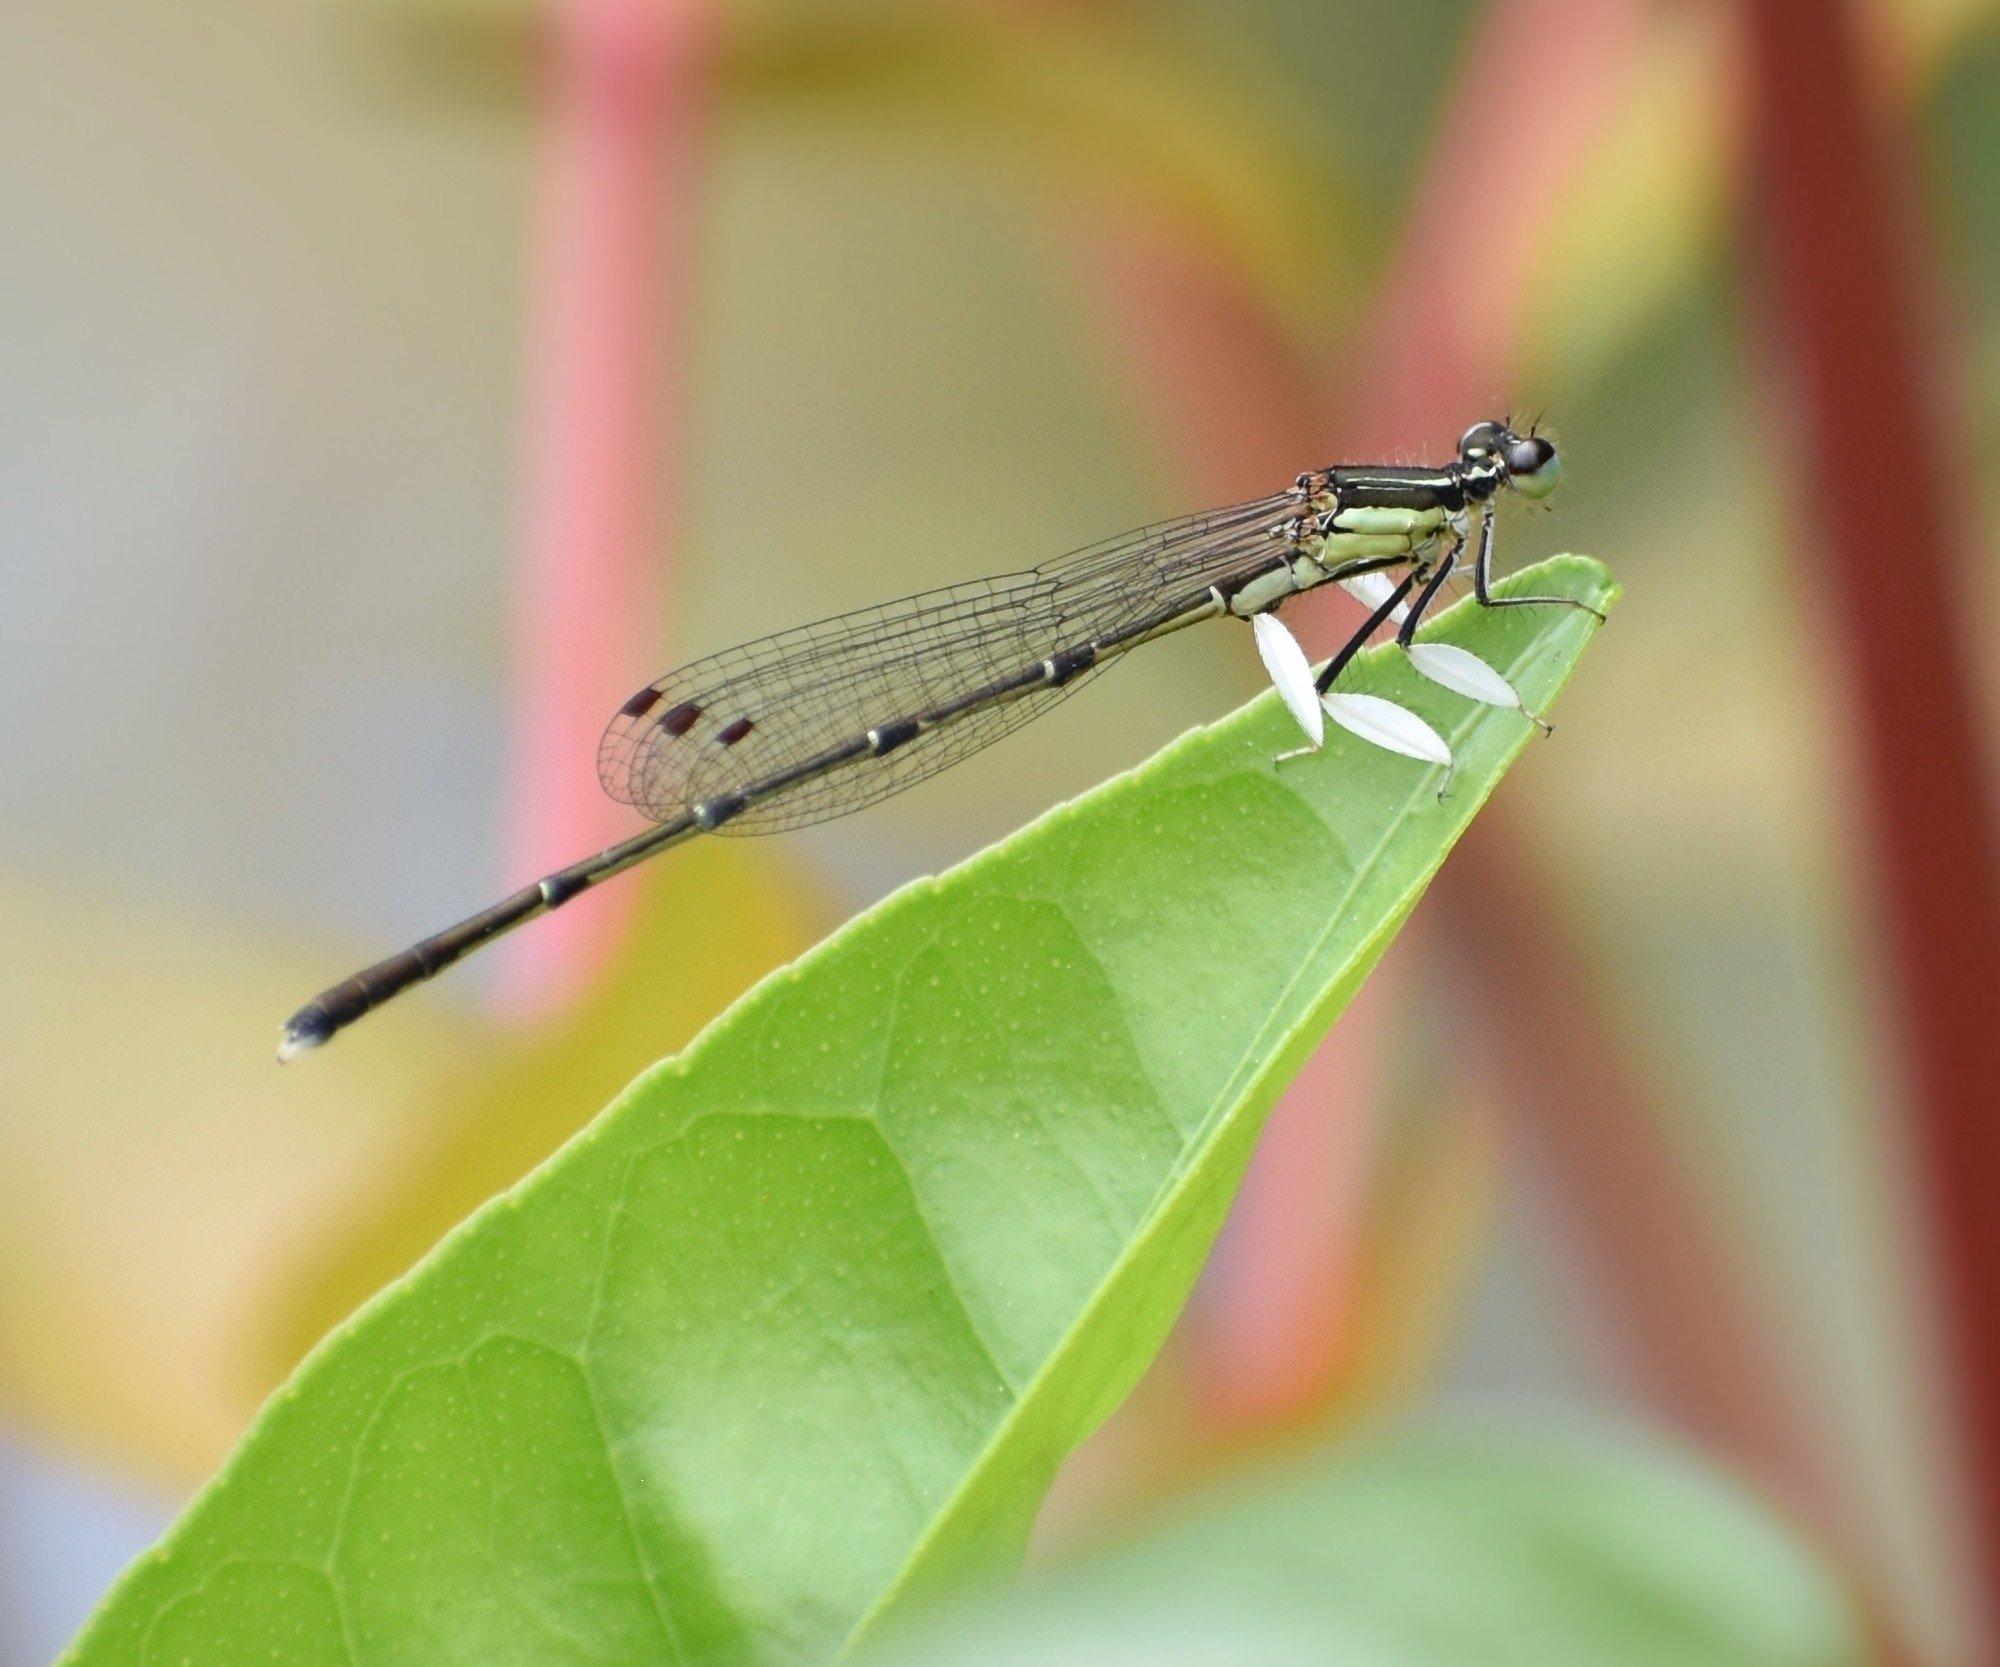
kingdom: Animalia
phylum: Arthropoda
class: Insecta
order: Odonata
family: Platycnemididae
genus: Platycnemis
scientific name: Platycnemis phyllopoda
